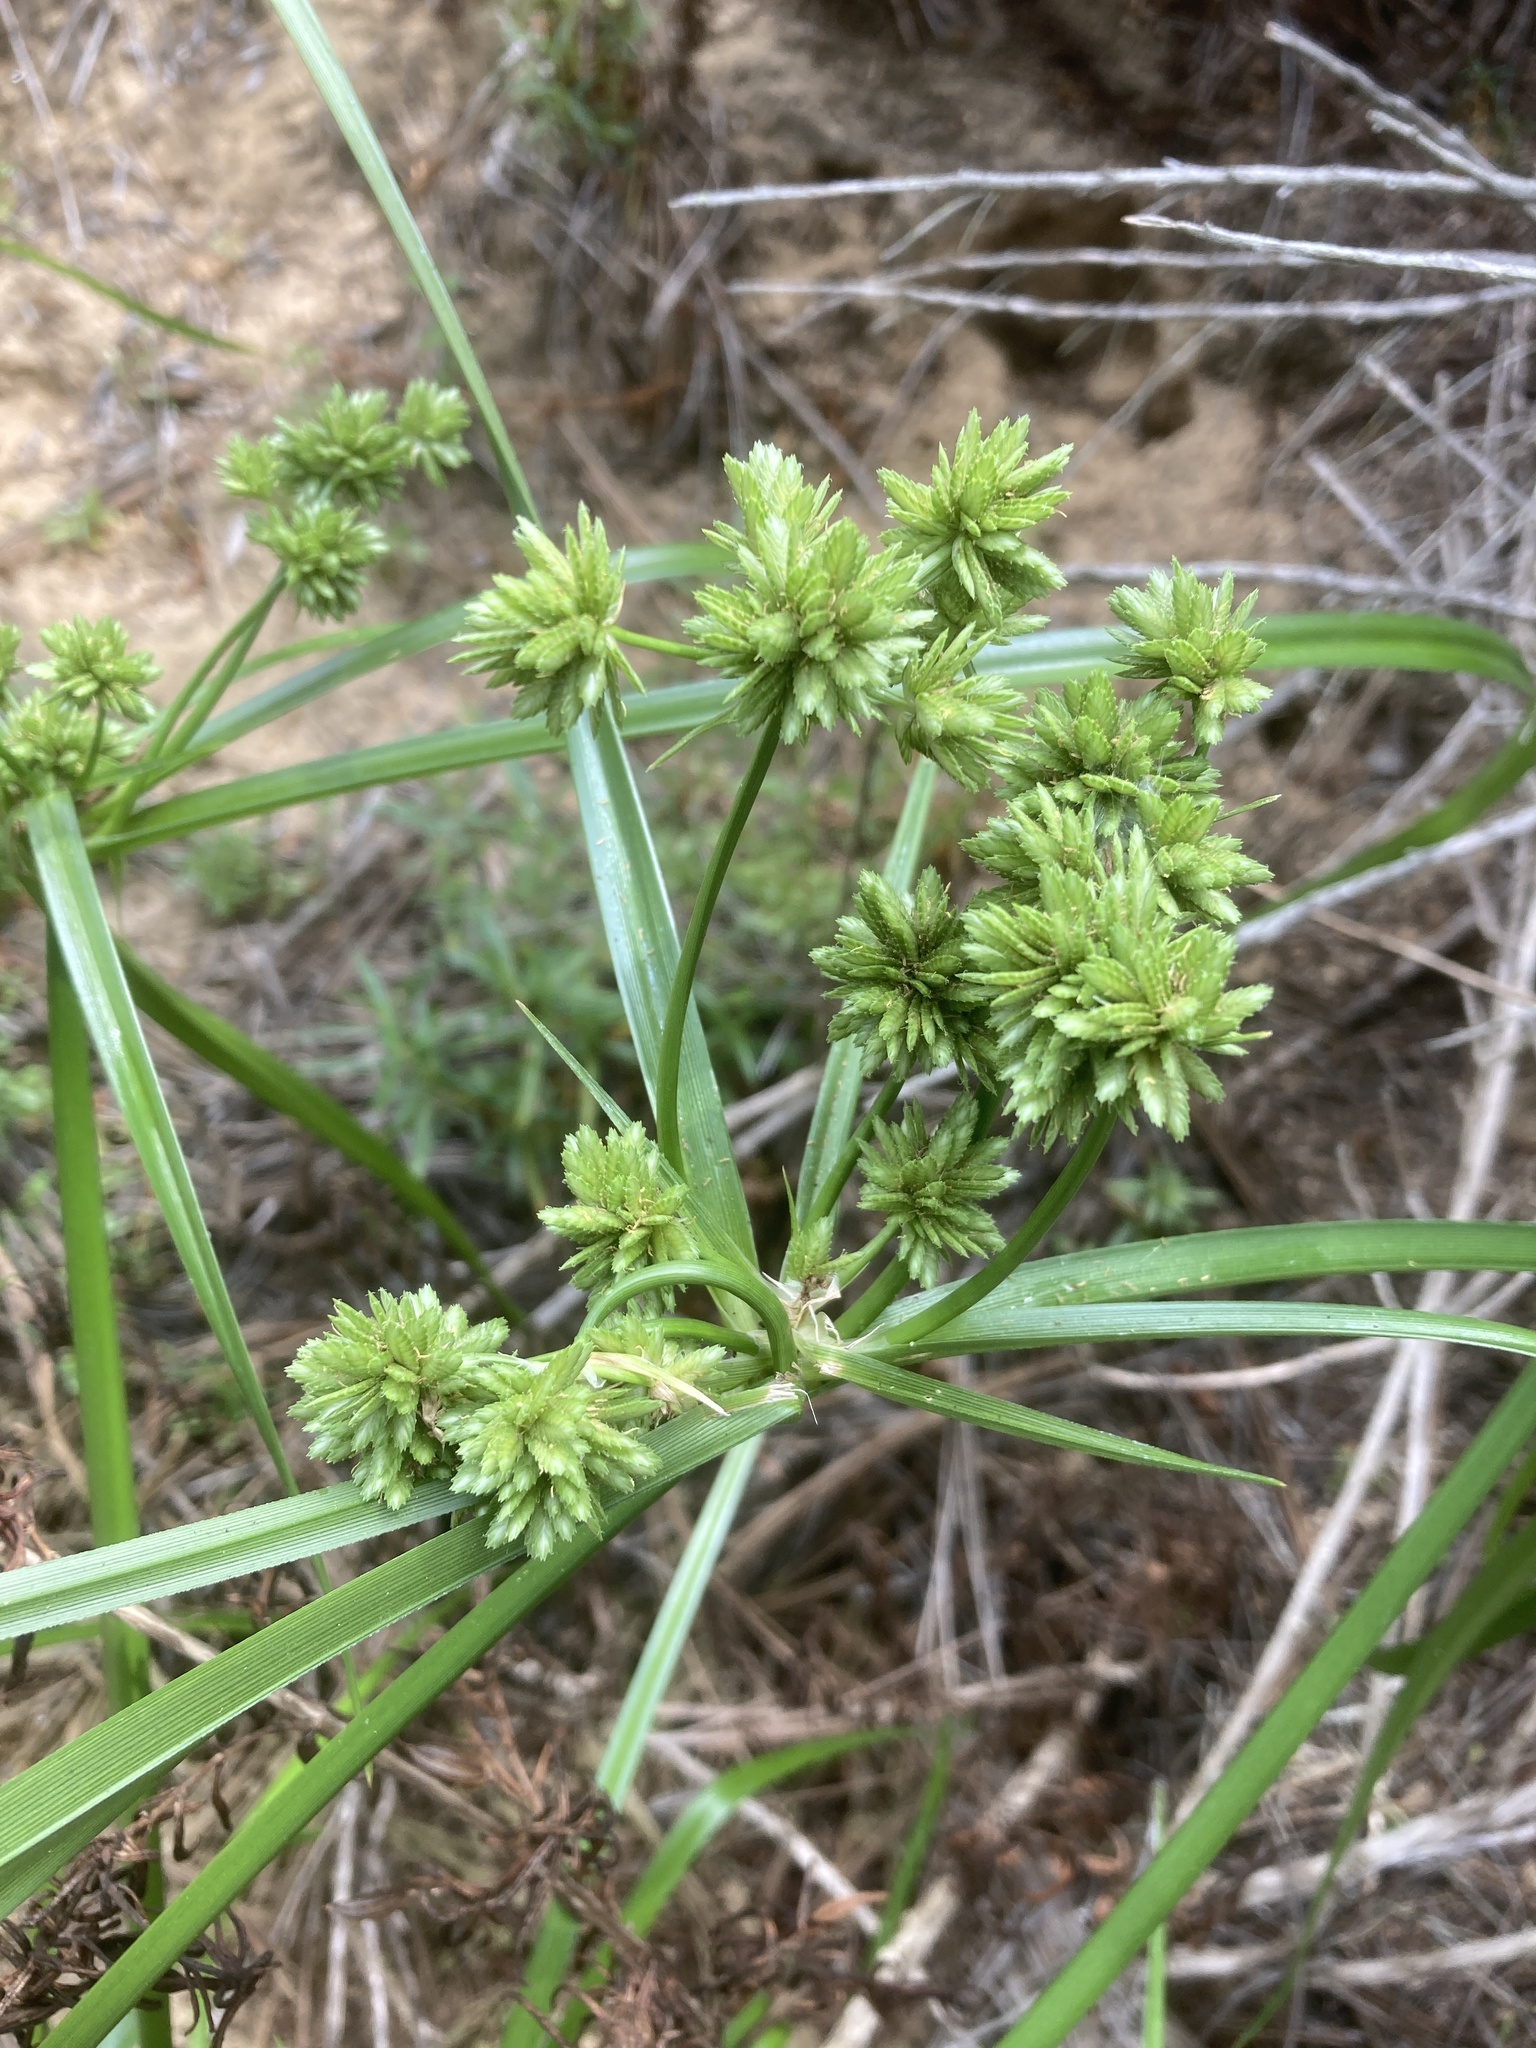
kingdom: Plantae
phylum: Tracheophyta
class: Liliopsida
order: Poales
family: Cyperaceae
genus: Cyperus
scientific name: Cyperus eragrostis
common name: Tall flatsedge
